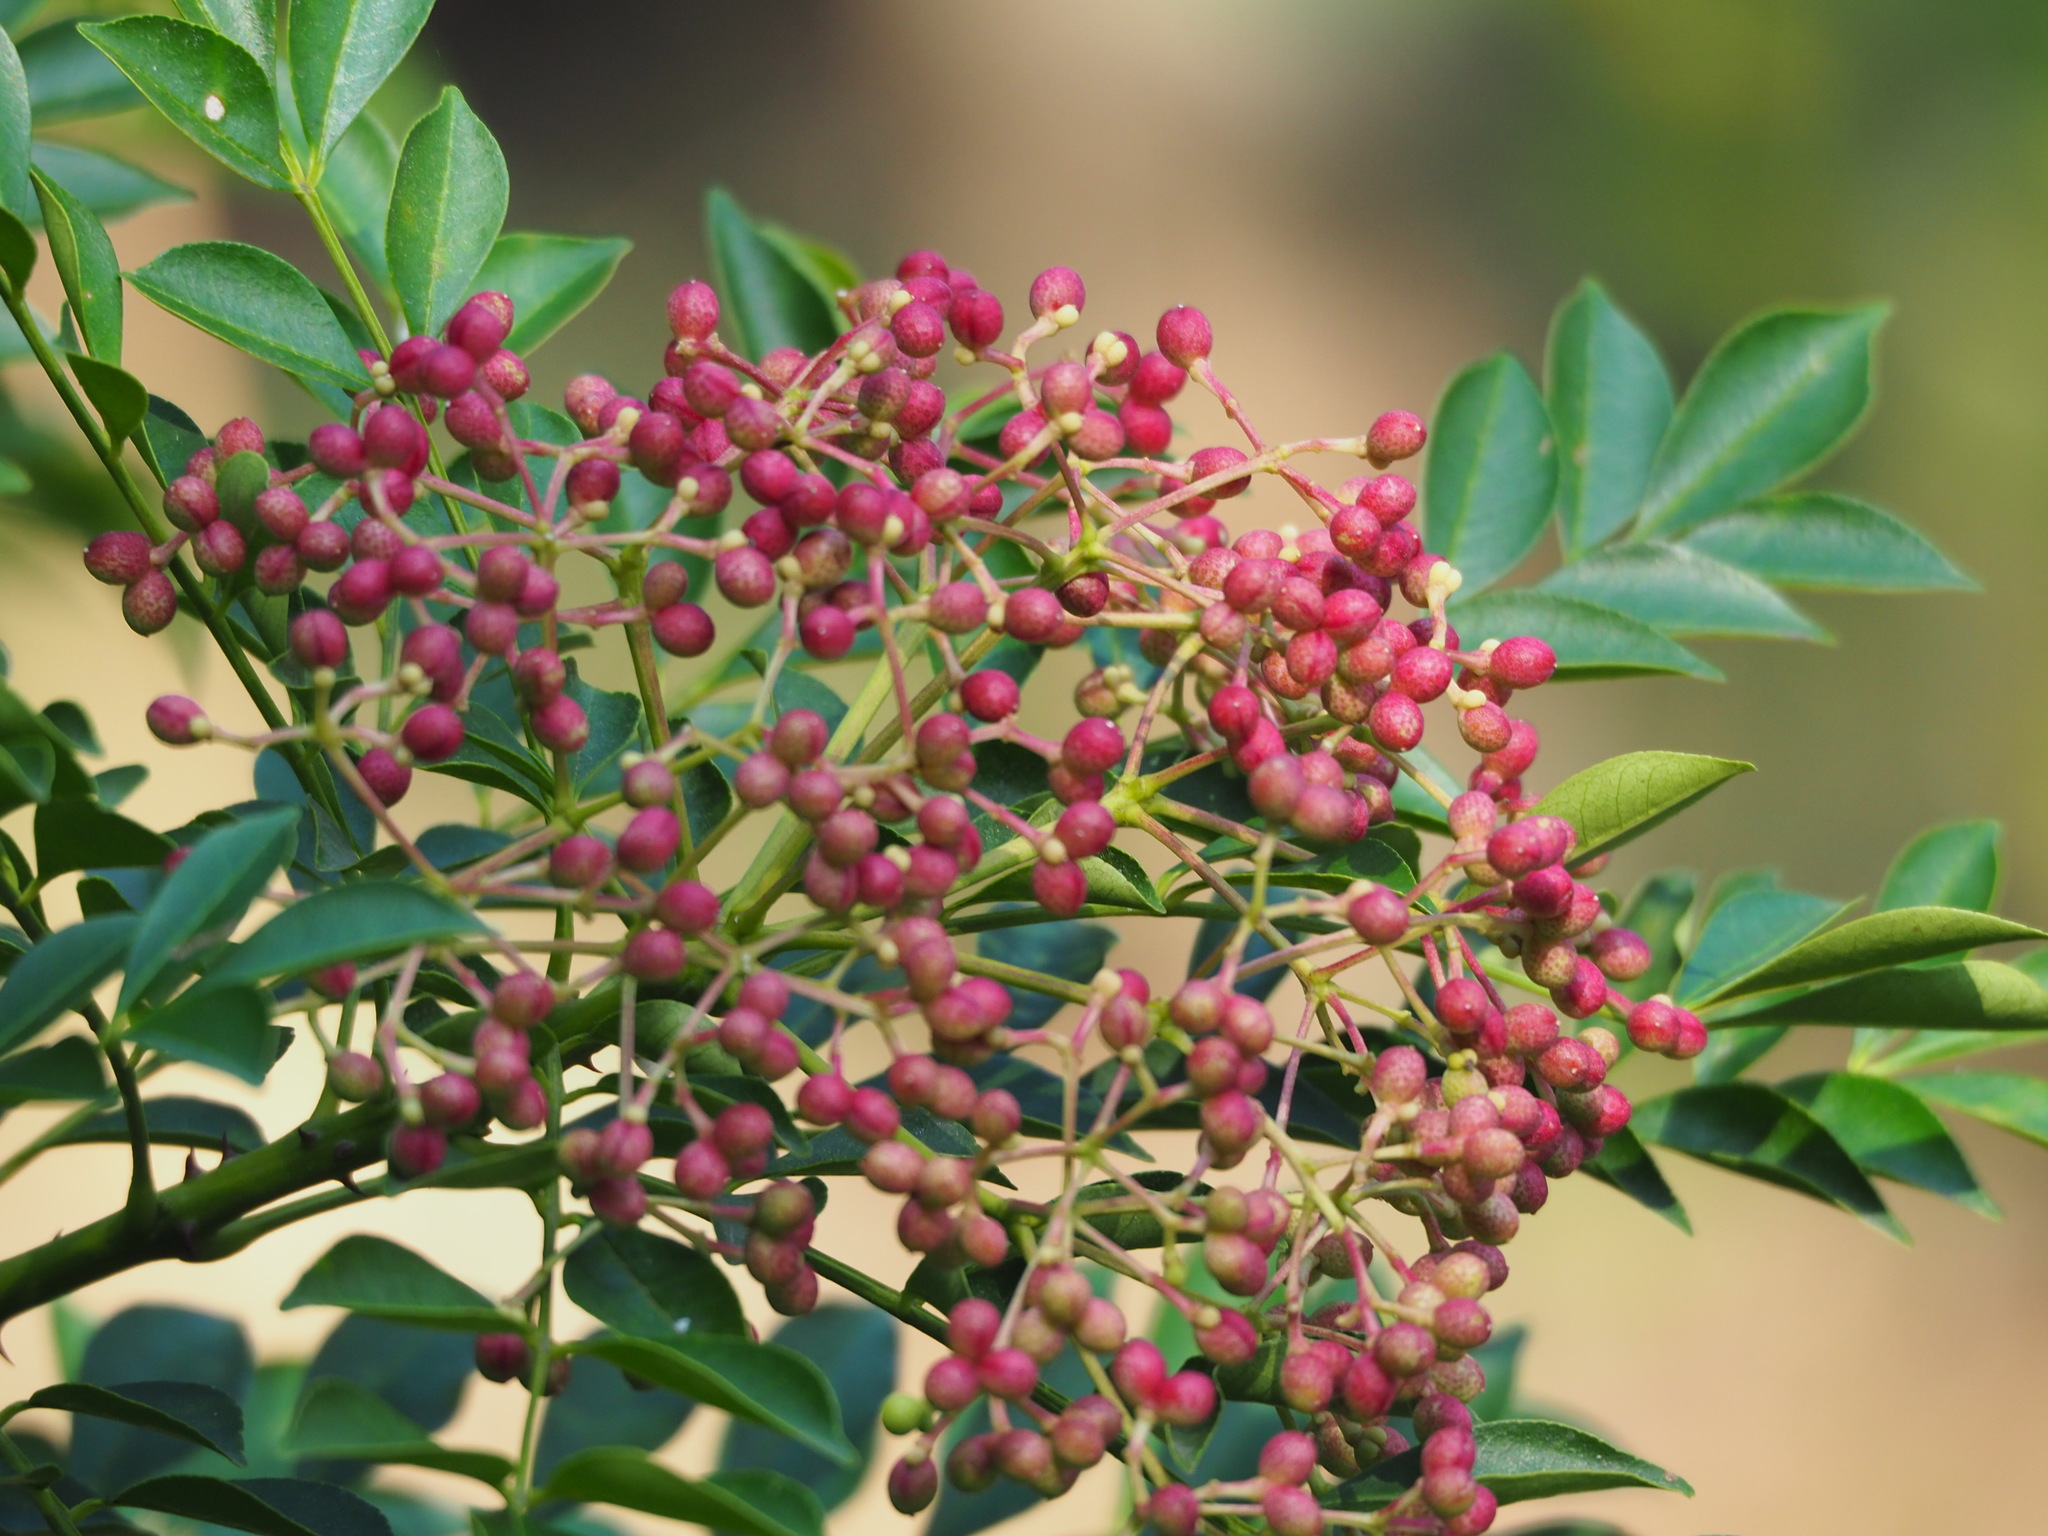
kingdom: Plantae
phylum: Tracheophyta
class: Magnoliopsida
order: Sapindales
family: Rutaceae
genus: Zanthoxylum
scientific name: Zanthoxylum avicennae
